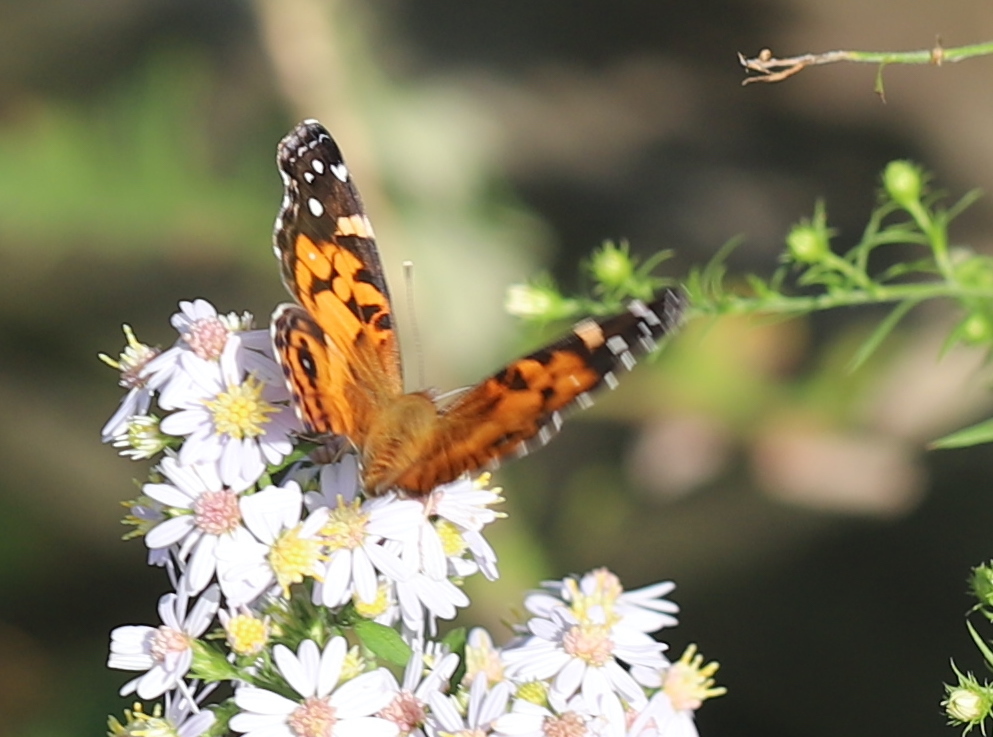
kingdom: Animalia
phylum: Arthropoda
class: Insecta
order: Lepidoptera
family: Nymphalidae
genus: Vanessa
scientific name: Vanessa virginiensis
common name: American lady
